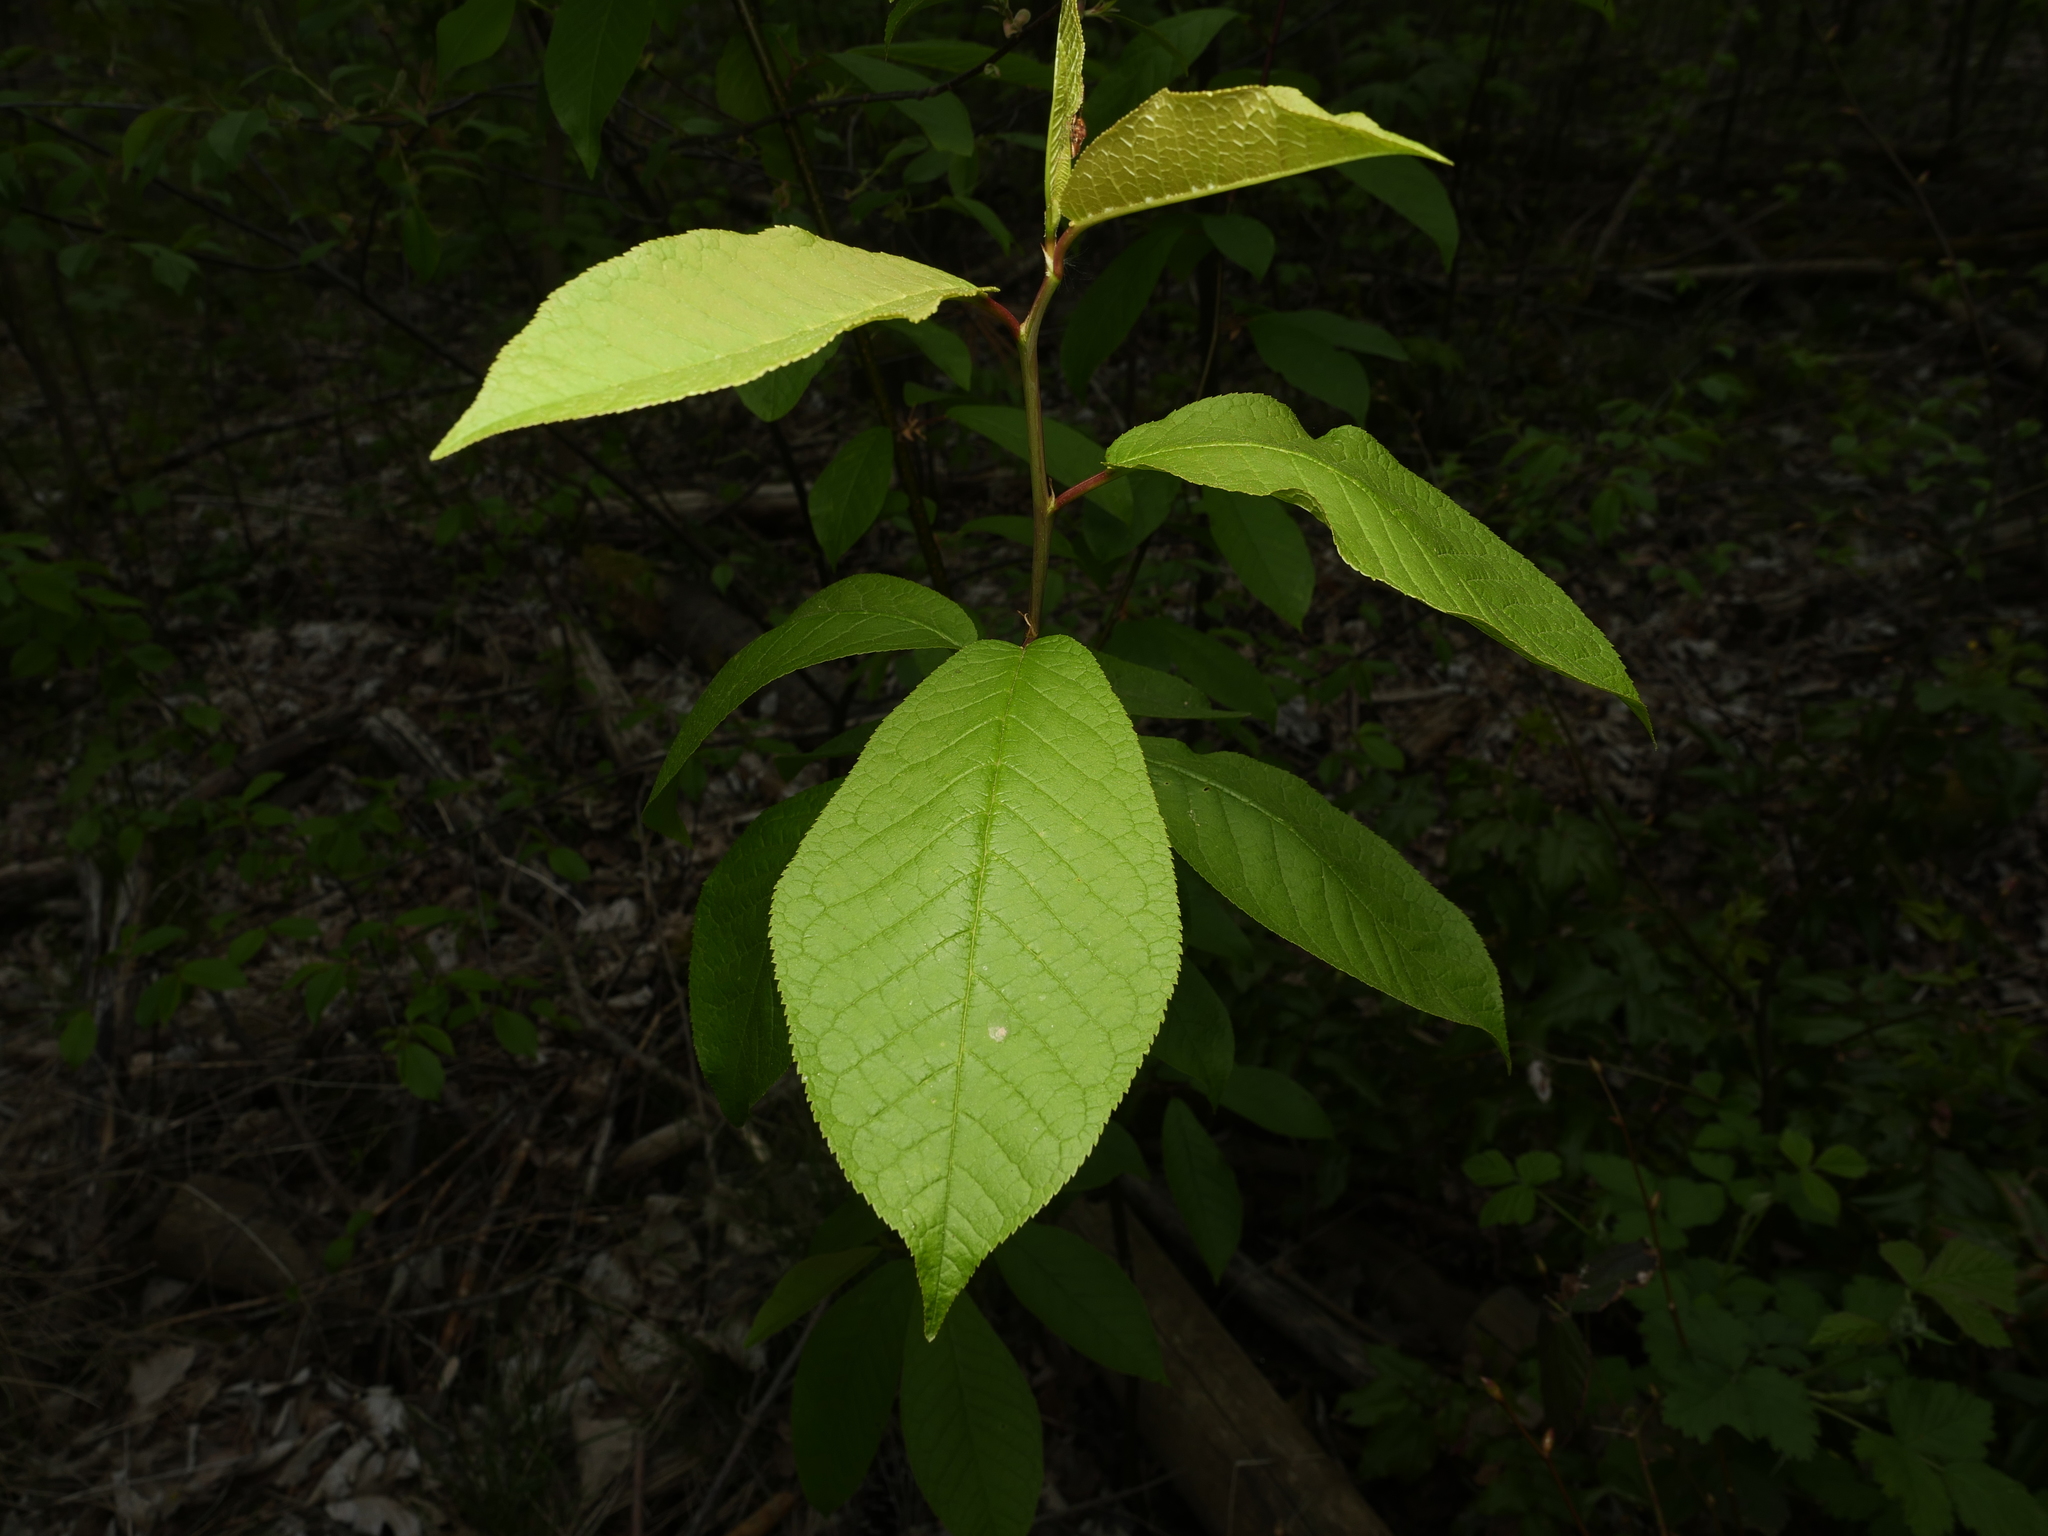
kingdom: Plantae
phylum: Tracheophyta
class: Magnoliopsida
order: Rosales
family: Rosaceae
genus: Prunus
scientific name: Prunus padus
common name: Bird cherry
